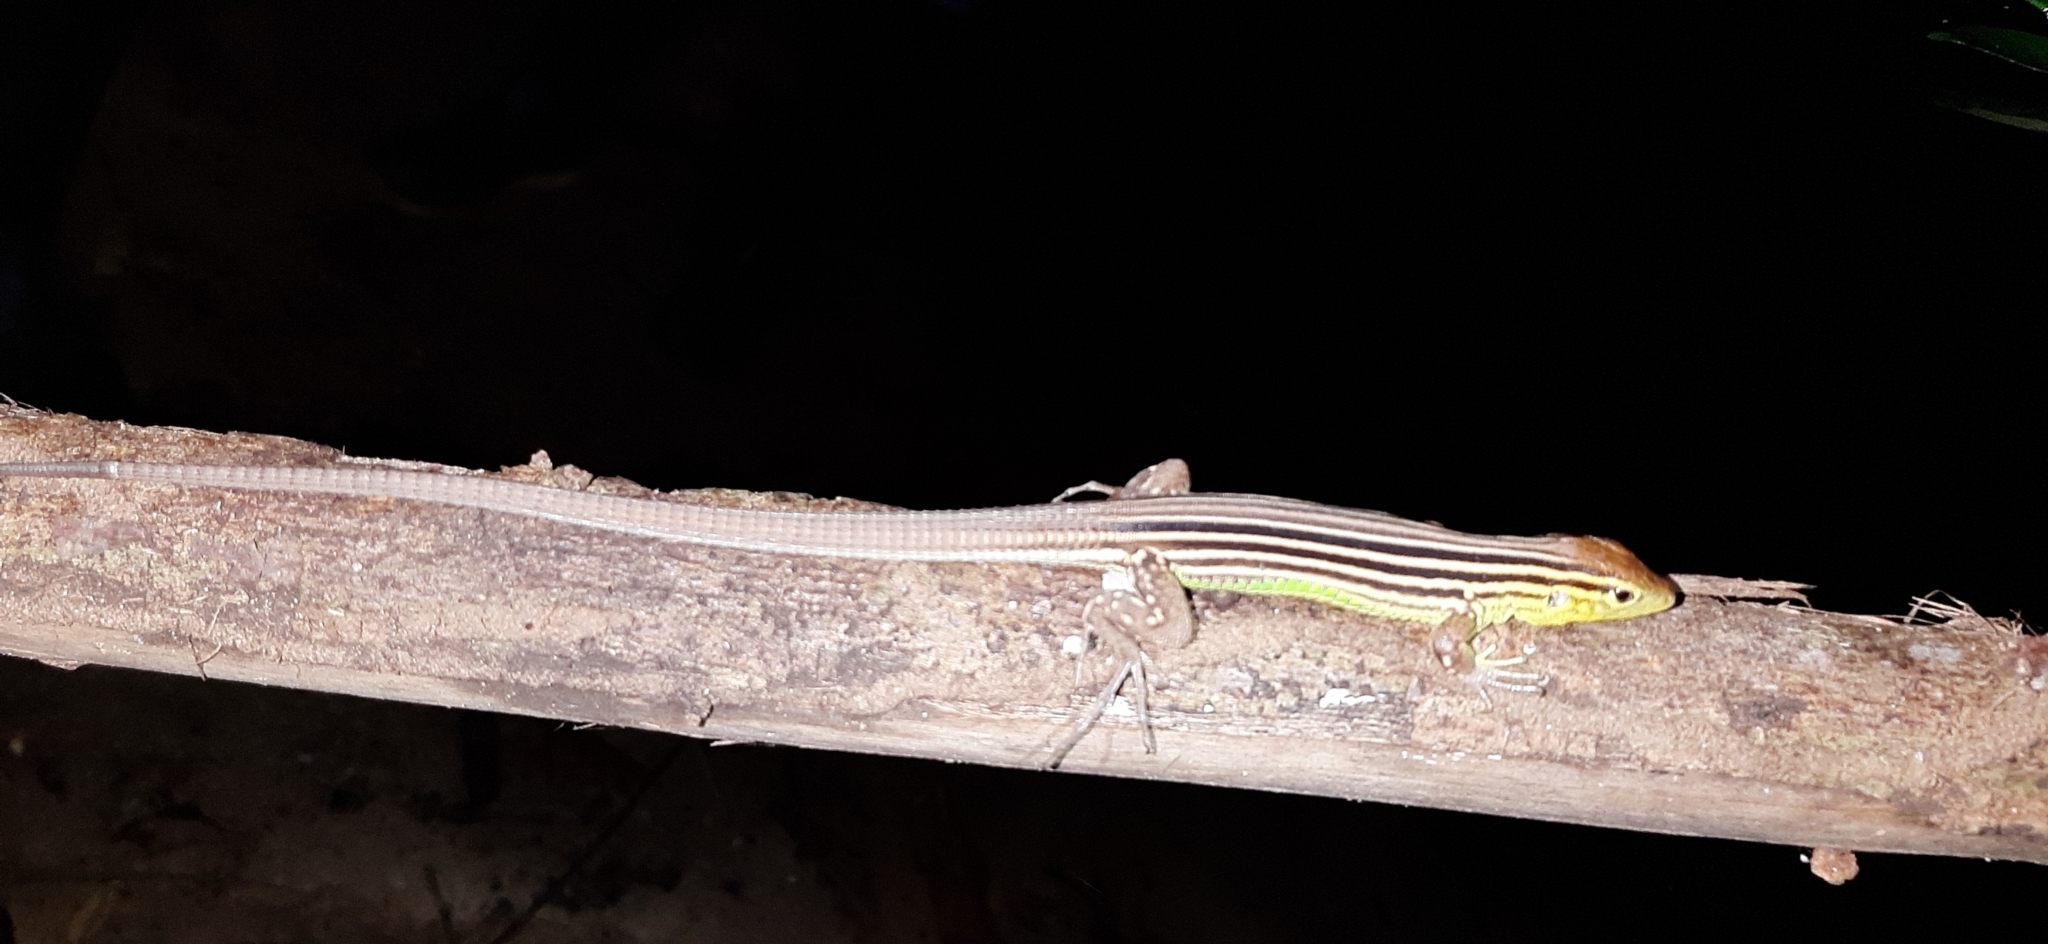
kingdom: Animalia
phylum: Chordata
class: Squamata
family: Teiidae
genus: Cnemidophorus
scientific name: Cnemidophorus gaigei
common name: Gaige’s rainbow lizard
